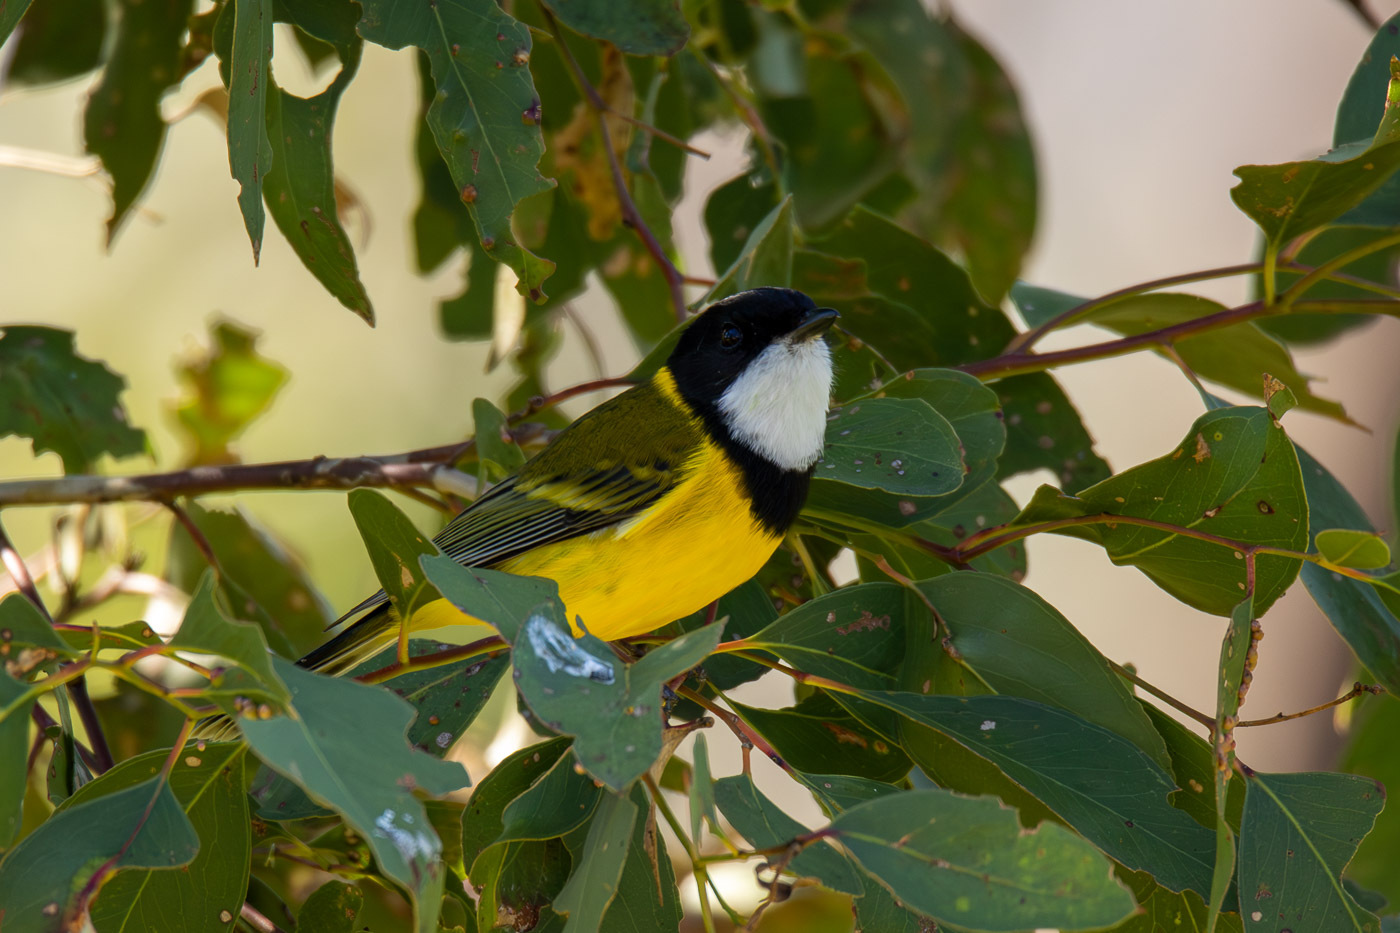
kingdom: Animalia
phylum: Chordata
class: Aves
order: Passeriformes
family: Pachycephalidae
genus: Pachycephala
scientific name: Pachycephala pectoralis
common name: Australian golden whistler
